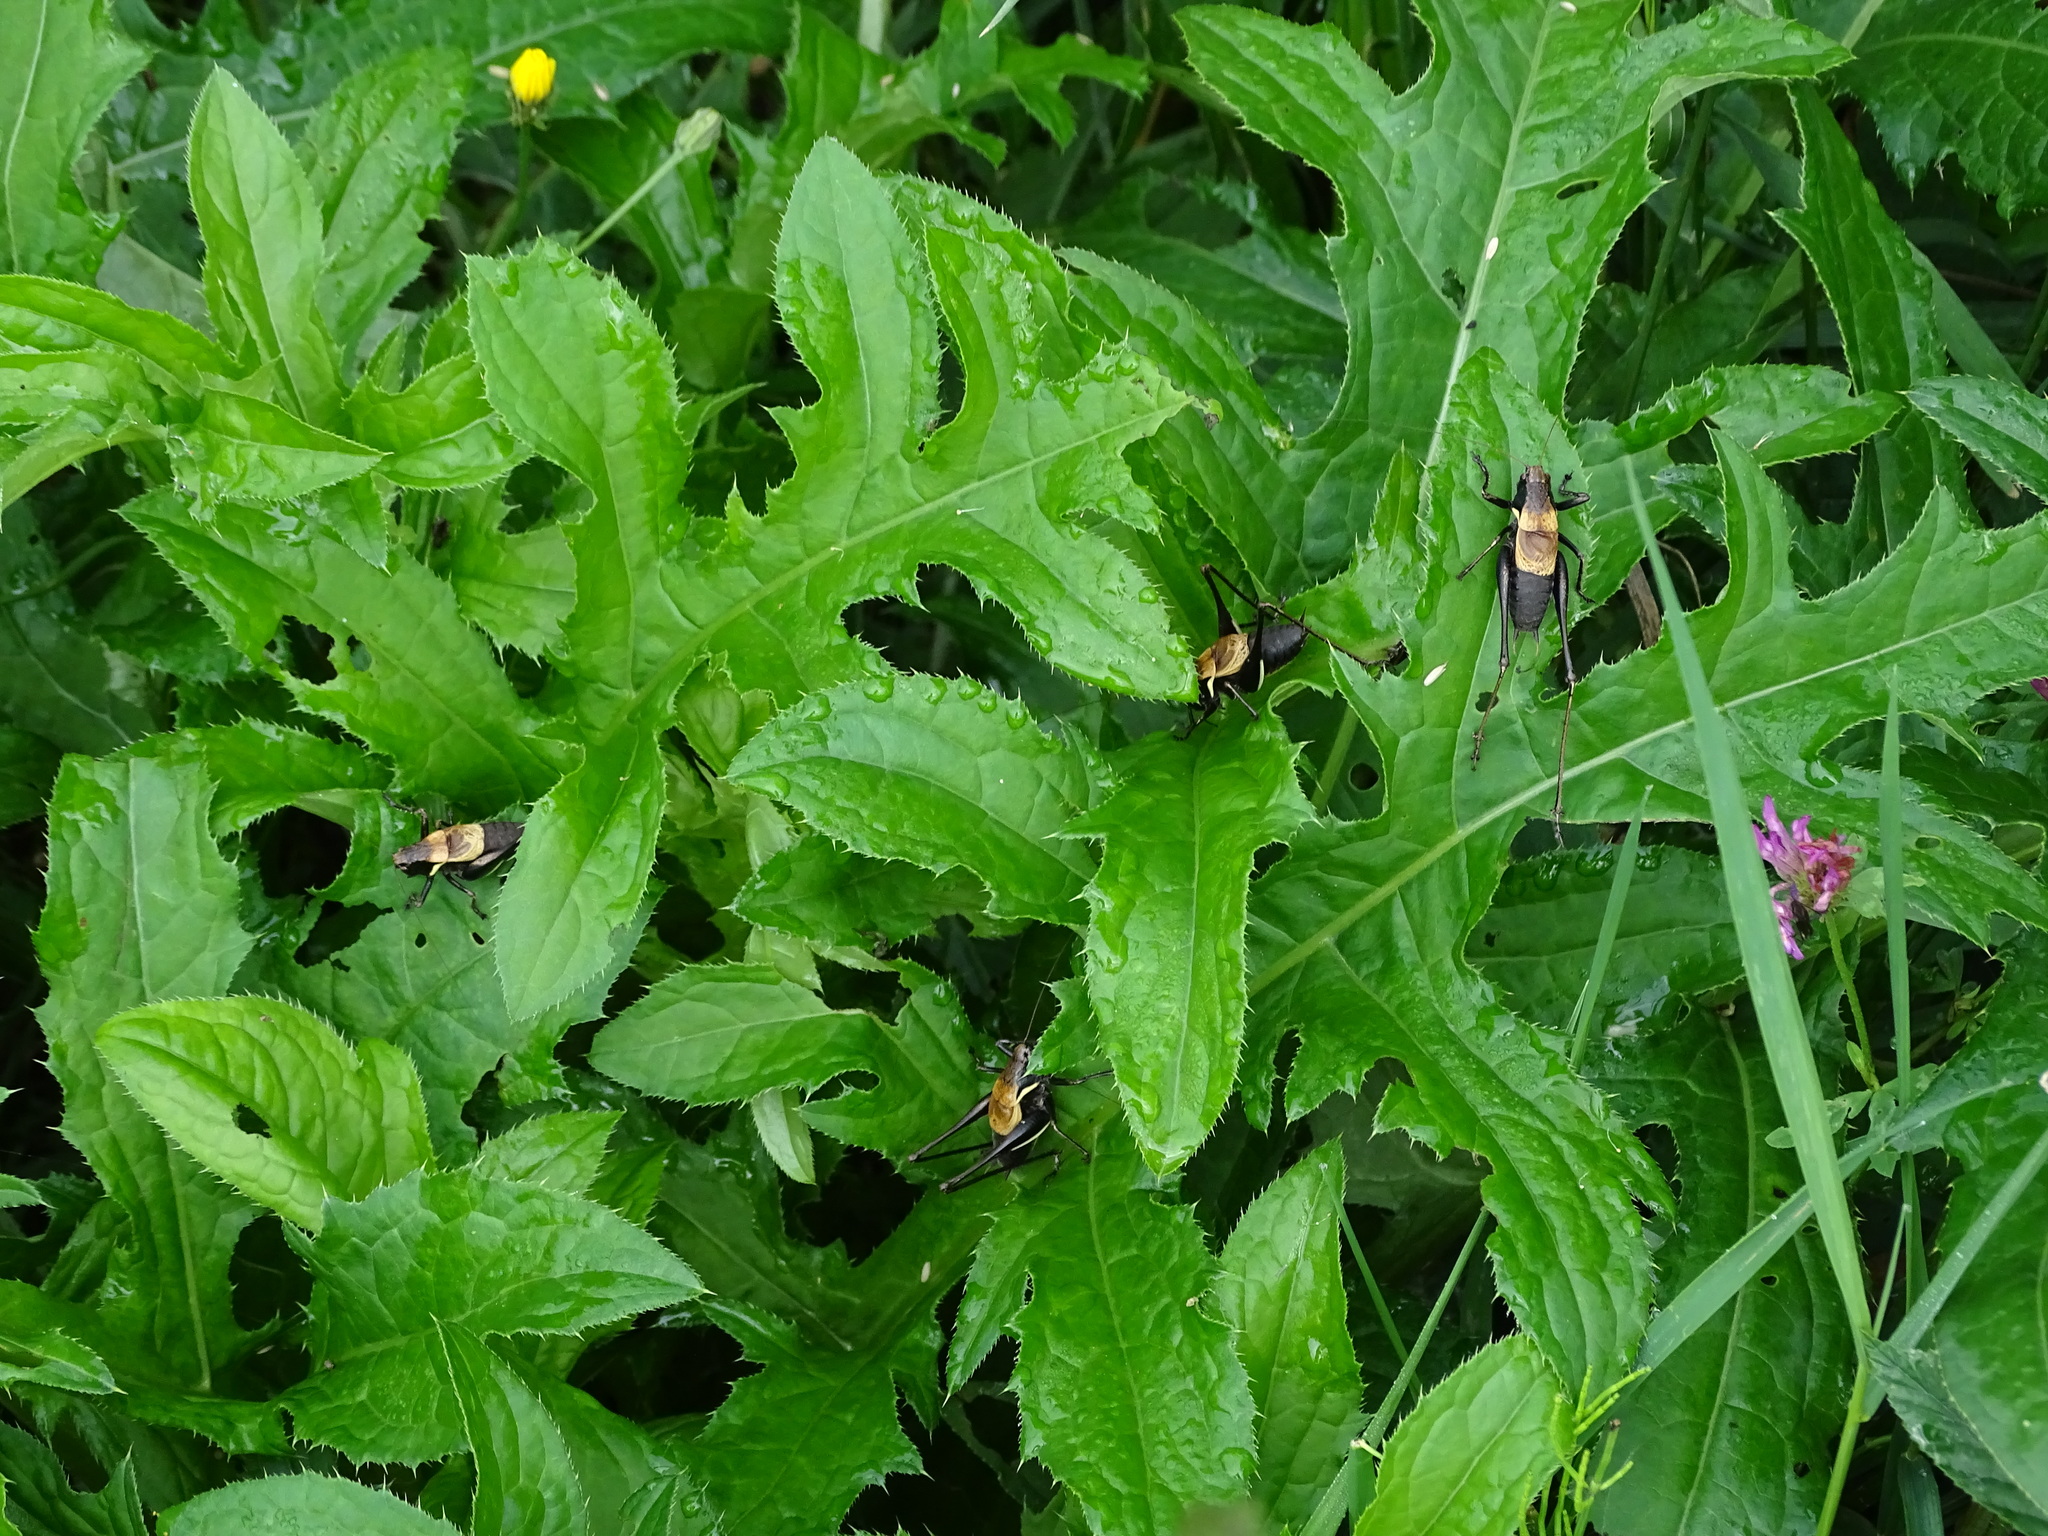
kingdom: Animalia
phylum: Arthropoda
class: Insecta
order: Orthoptera
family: Tettigoniidae
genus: Pholidoptera
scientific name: Pholidoptera aptera
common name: Alpine dark bush-cricket
